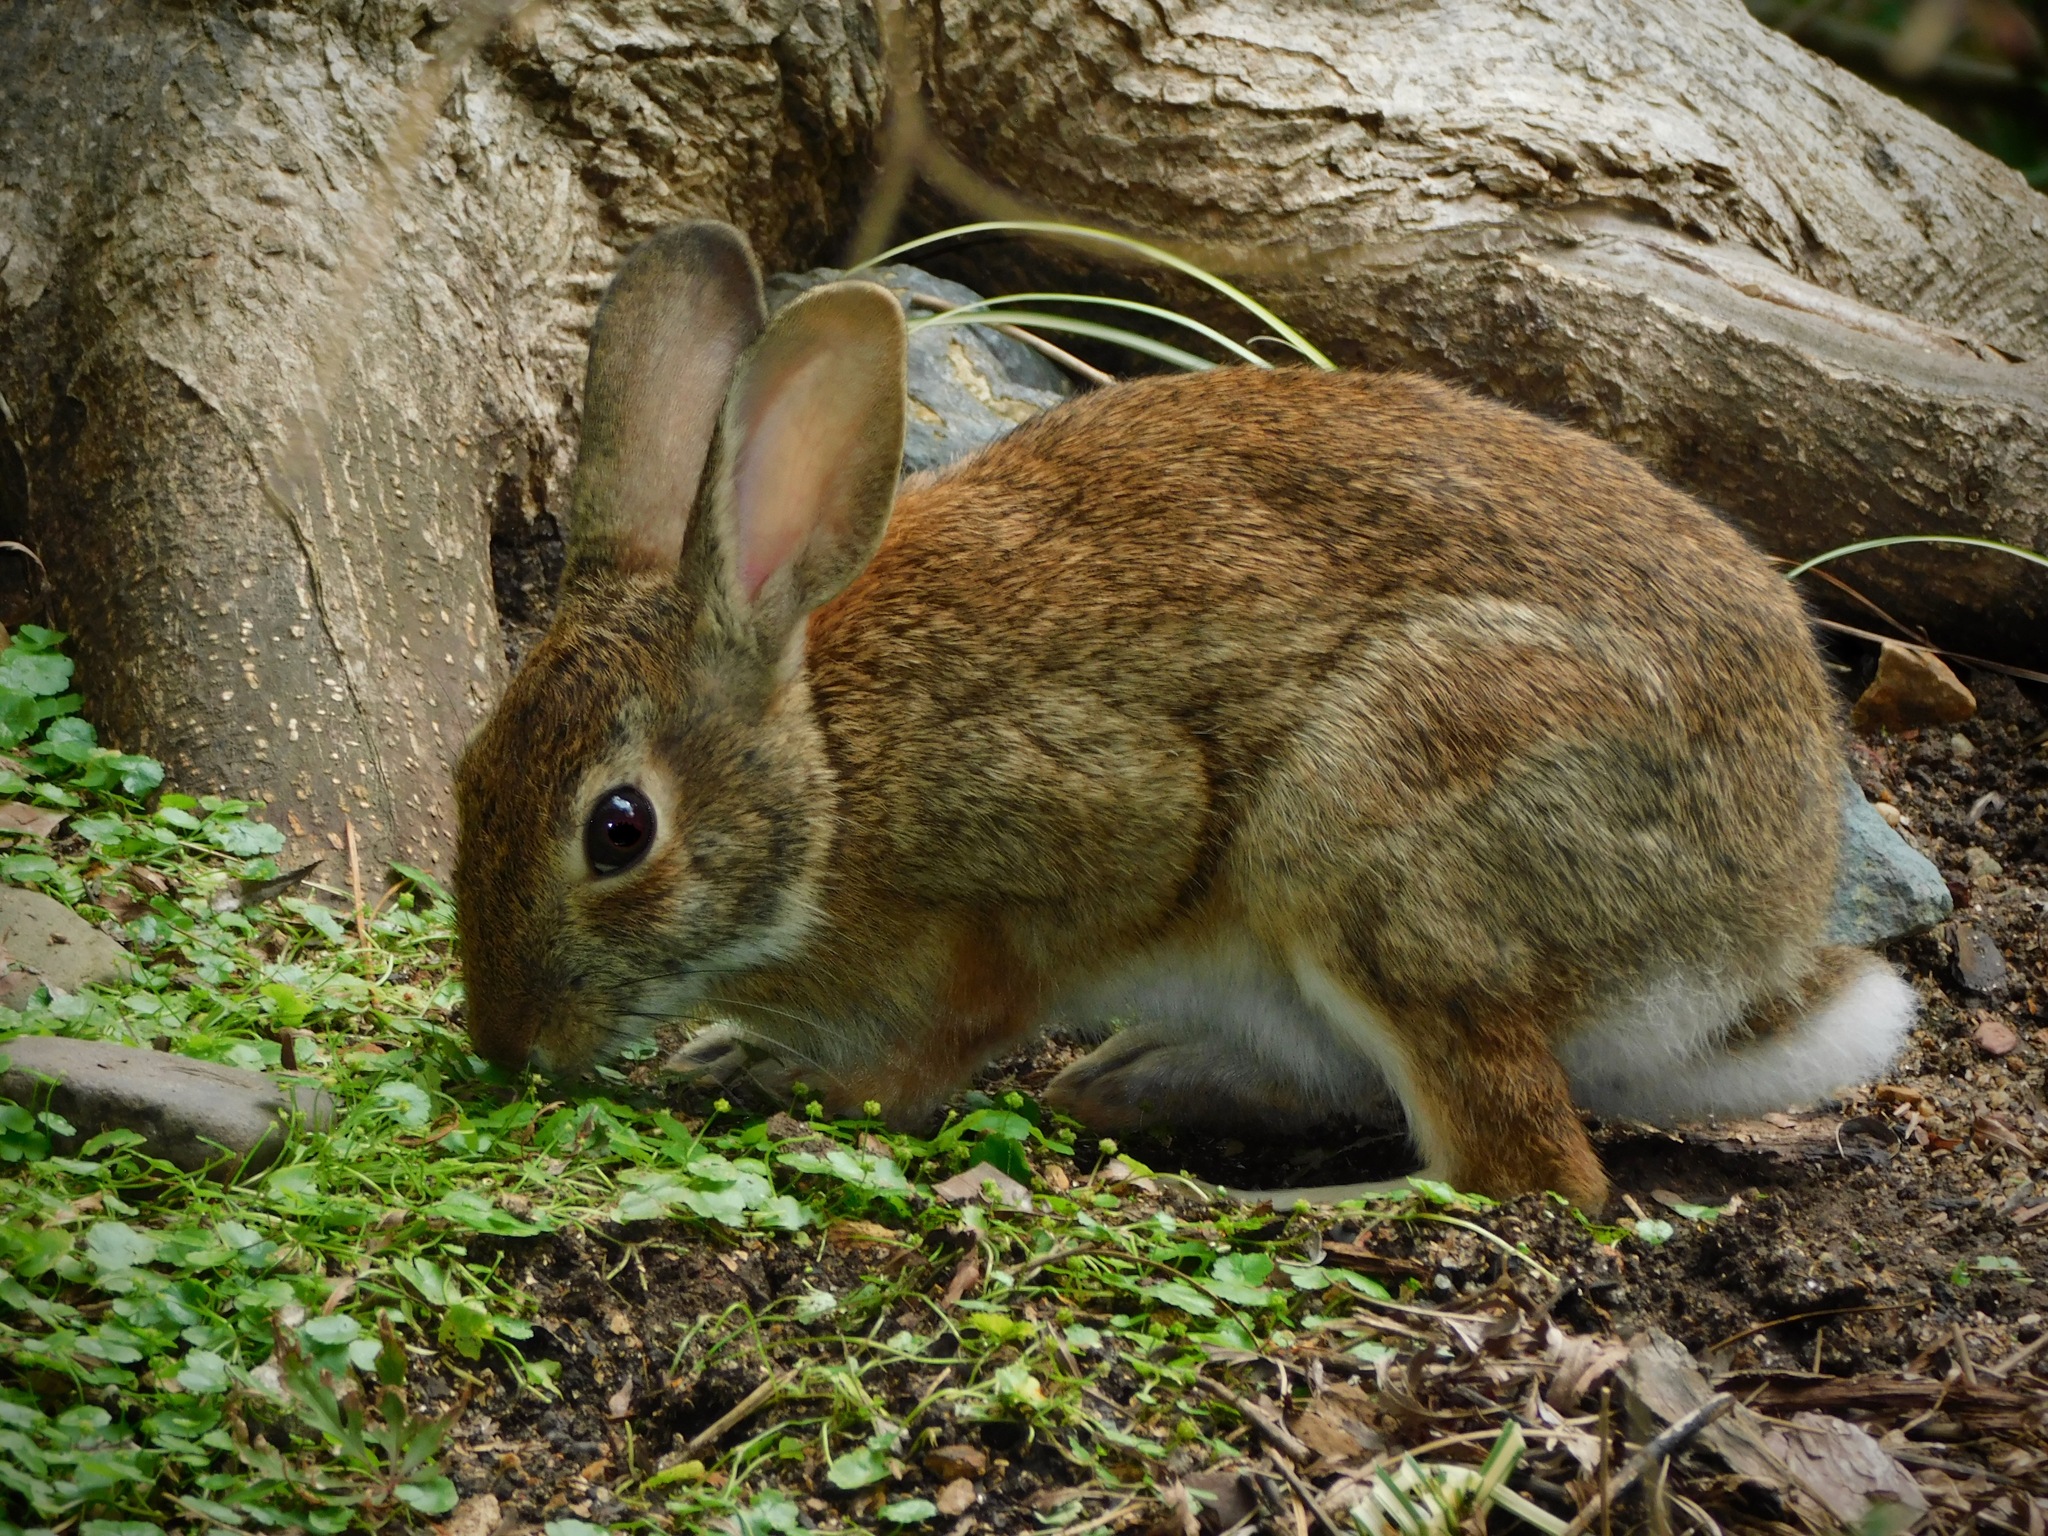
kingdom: Animalia
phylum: Chordata
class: Mammalia
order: Lagomorpha
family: Leporidae
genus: Sylvilagus
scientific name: Sylvilagus floridanus
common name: Eastern cottontail
